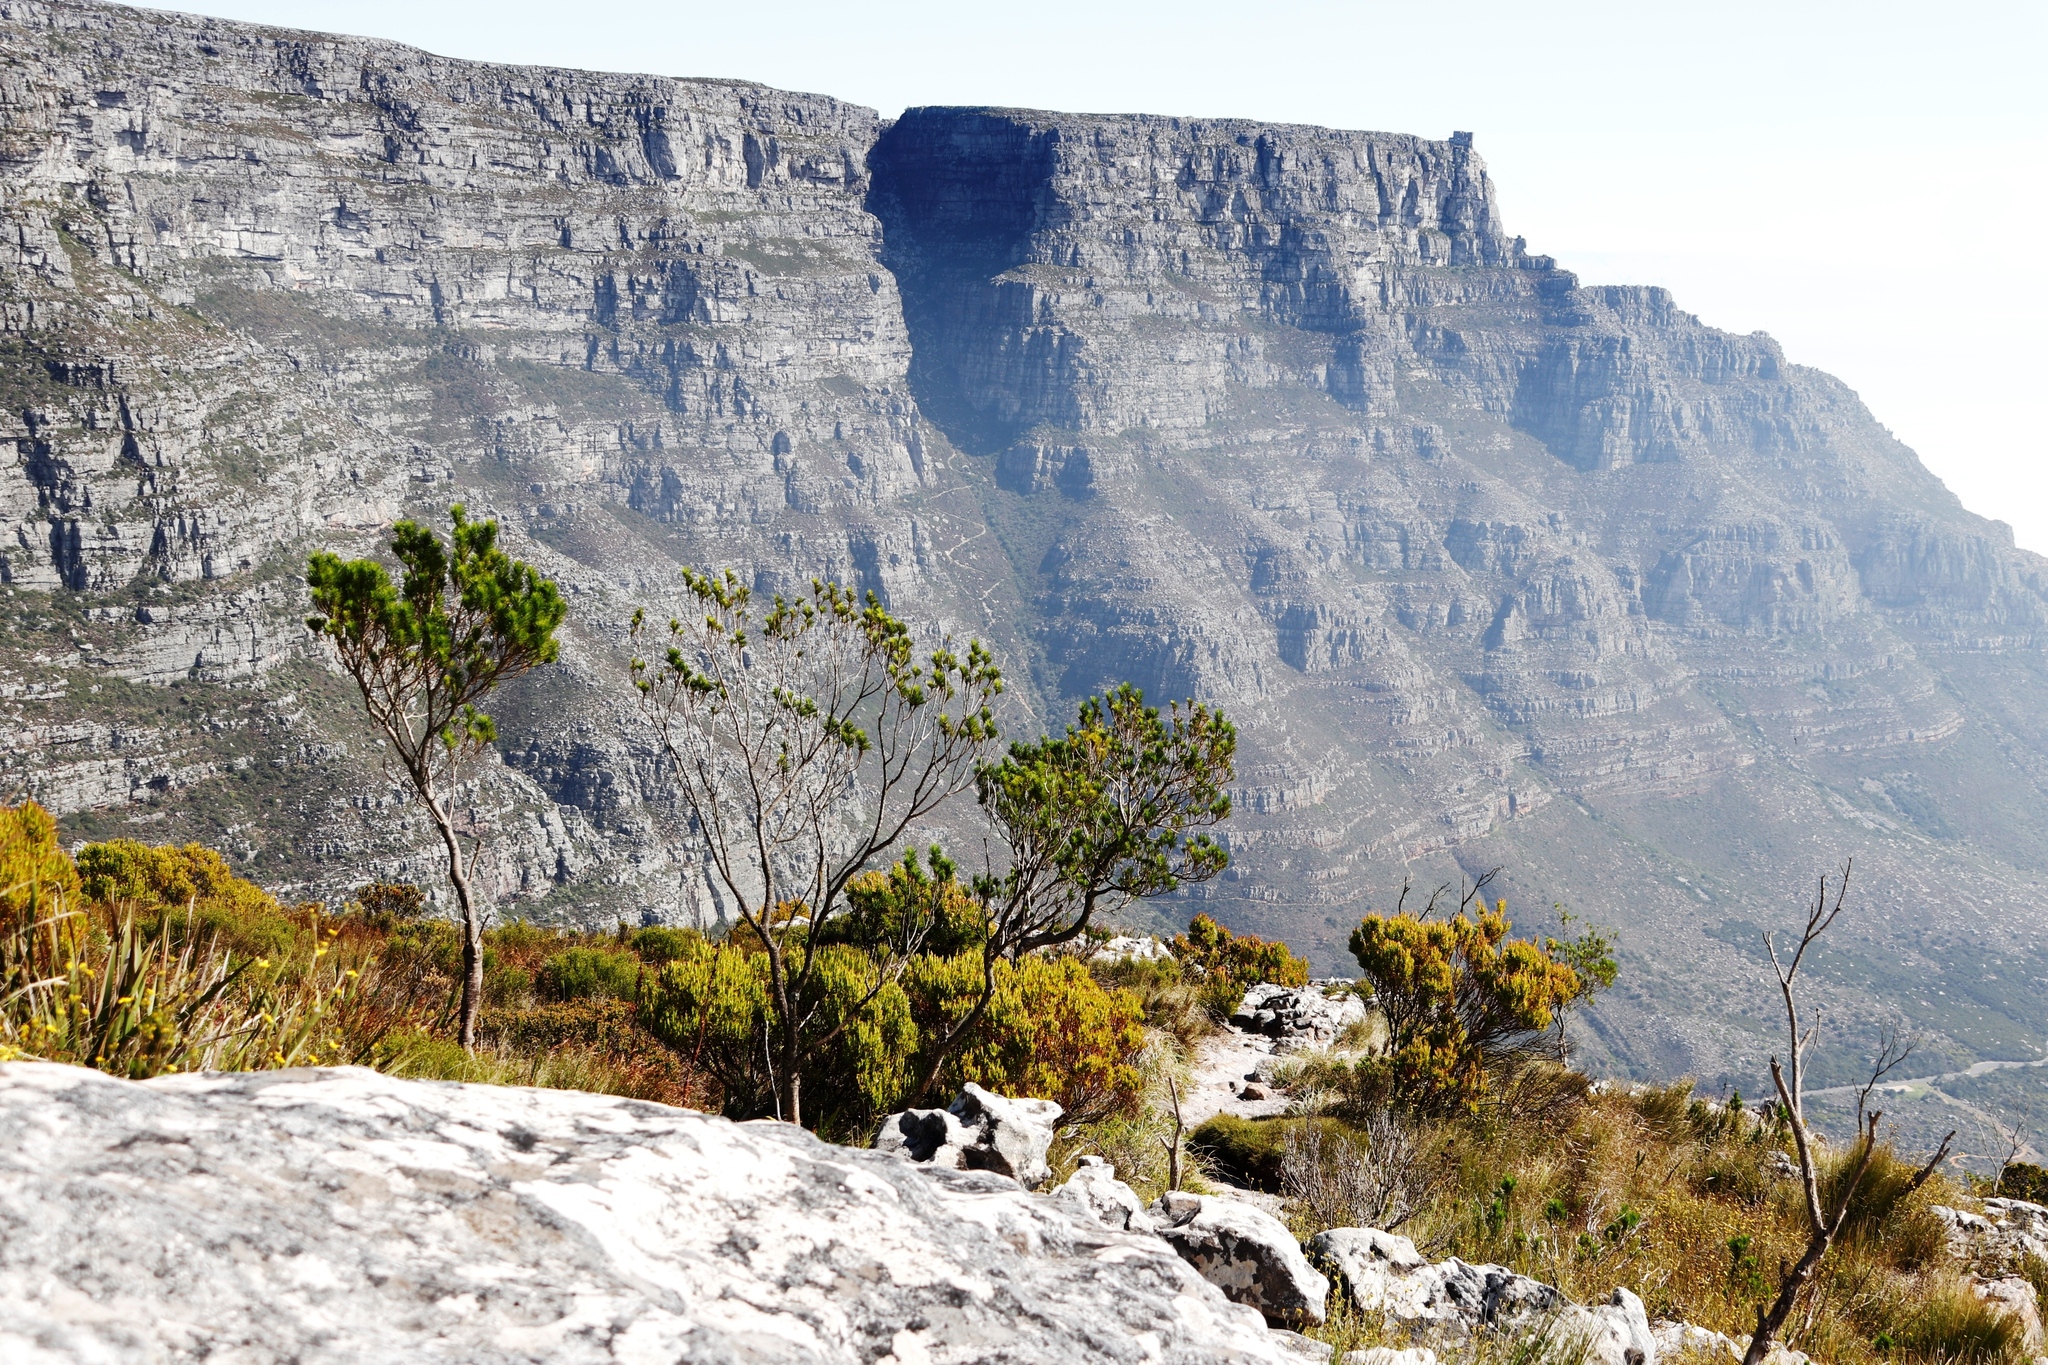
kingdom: Plantae
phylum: Tracheophyta
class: Magnoliopsida
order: Proteales
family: Proteaceae
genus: Leucadendron
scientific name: Leucadendron xanthoconus
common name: Sickle-leaf conebush
